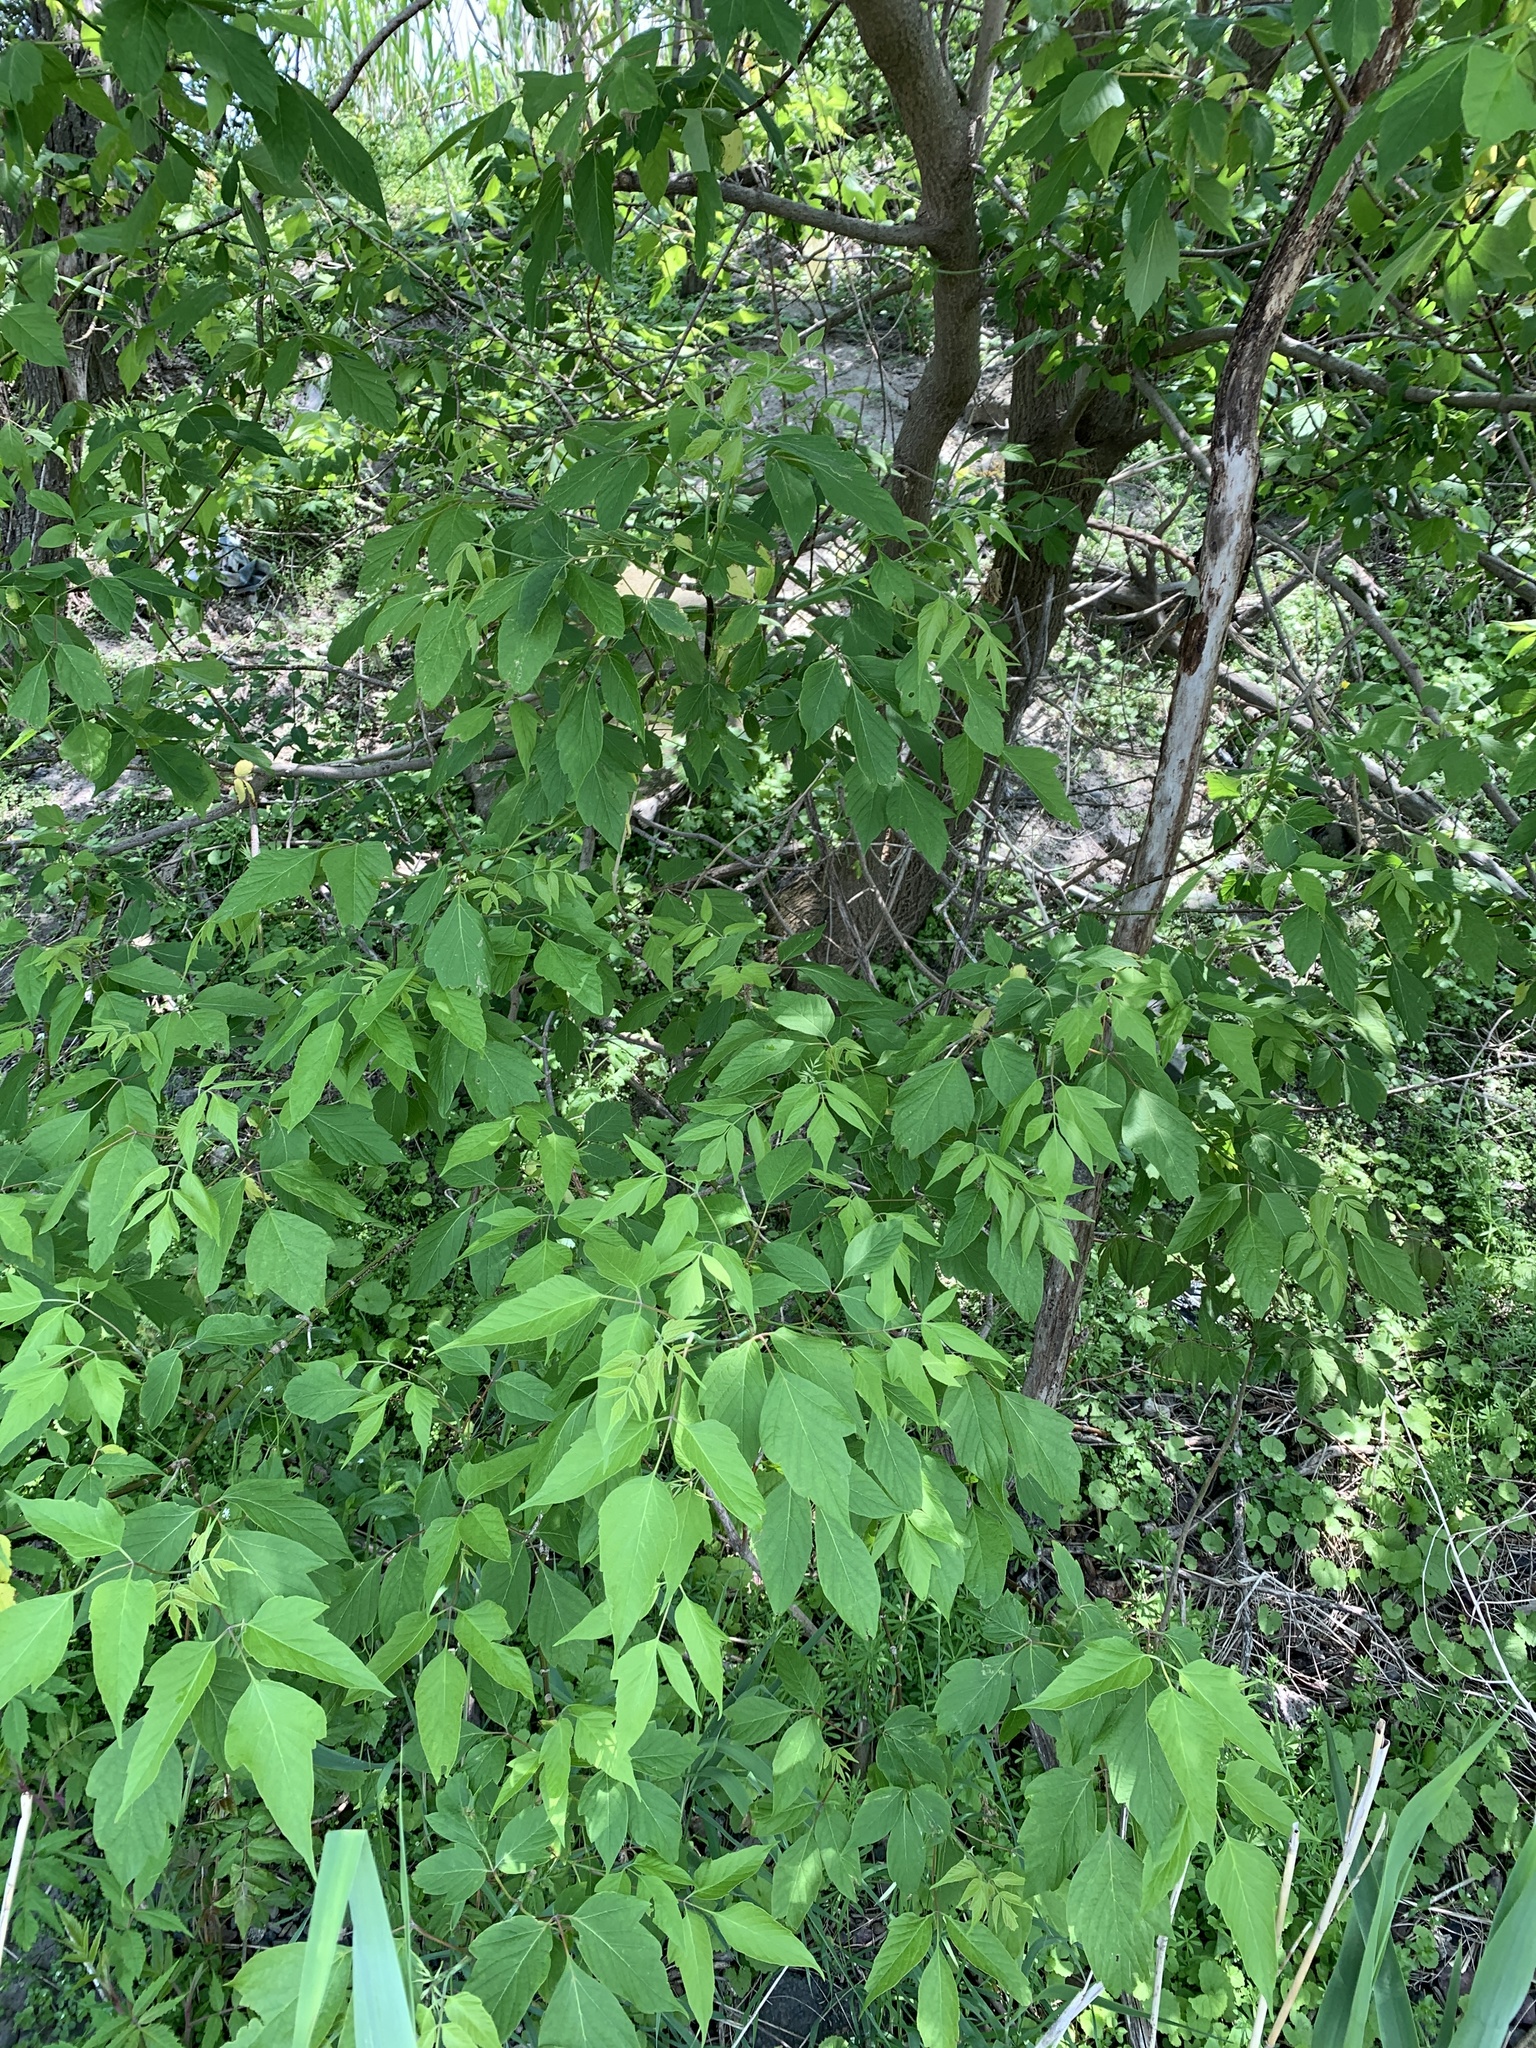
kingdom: Plantae
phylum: Tracheophyta
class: Magnoliopsida
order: Sapindales
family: Sapindaceae
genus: Acer
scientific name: Acer negundo
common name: Ashleaf maple
